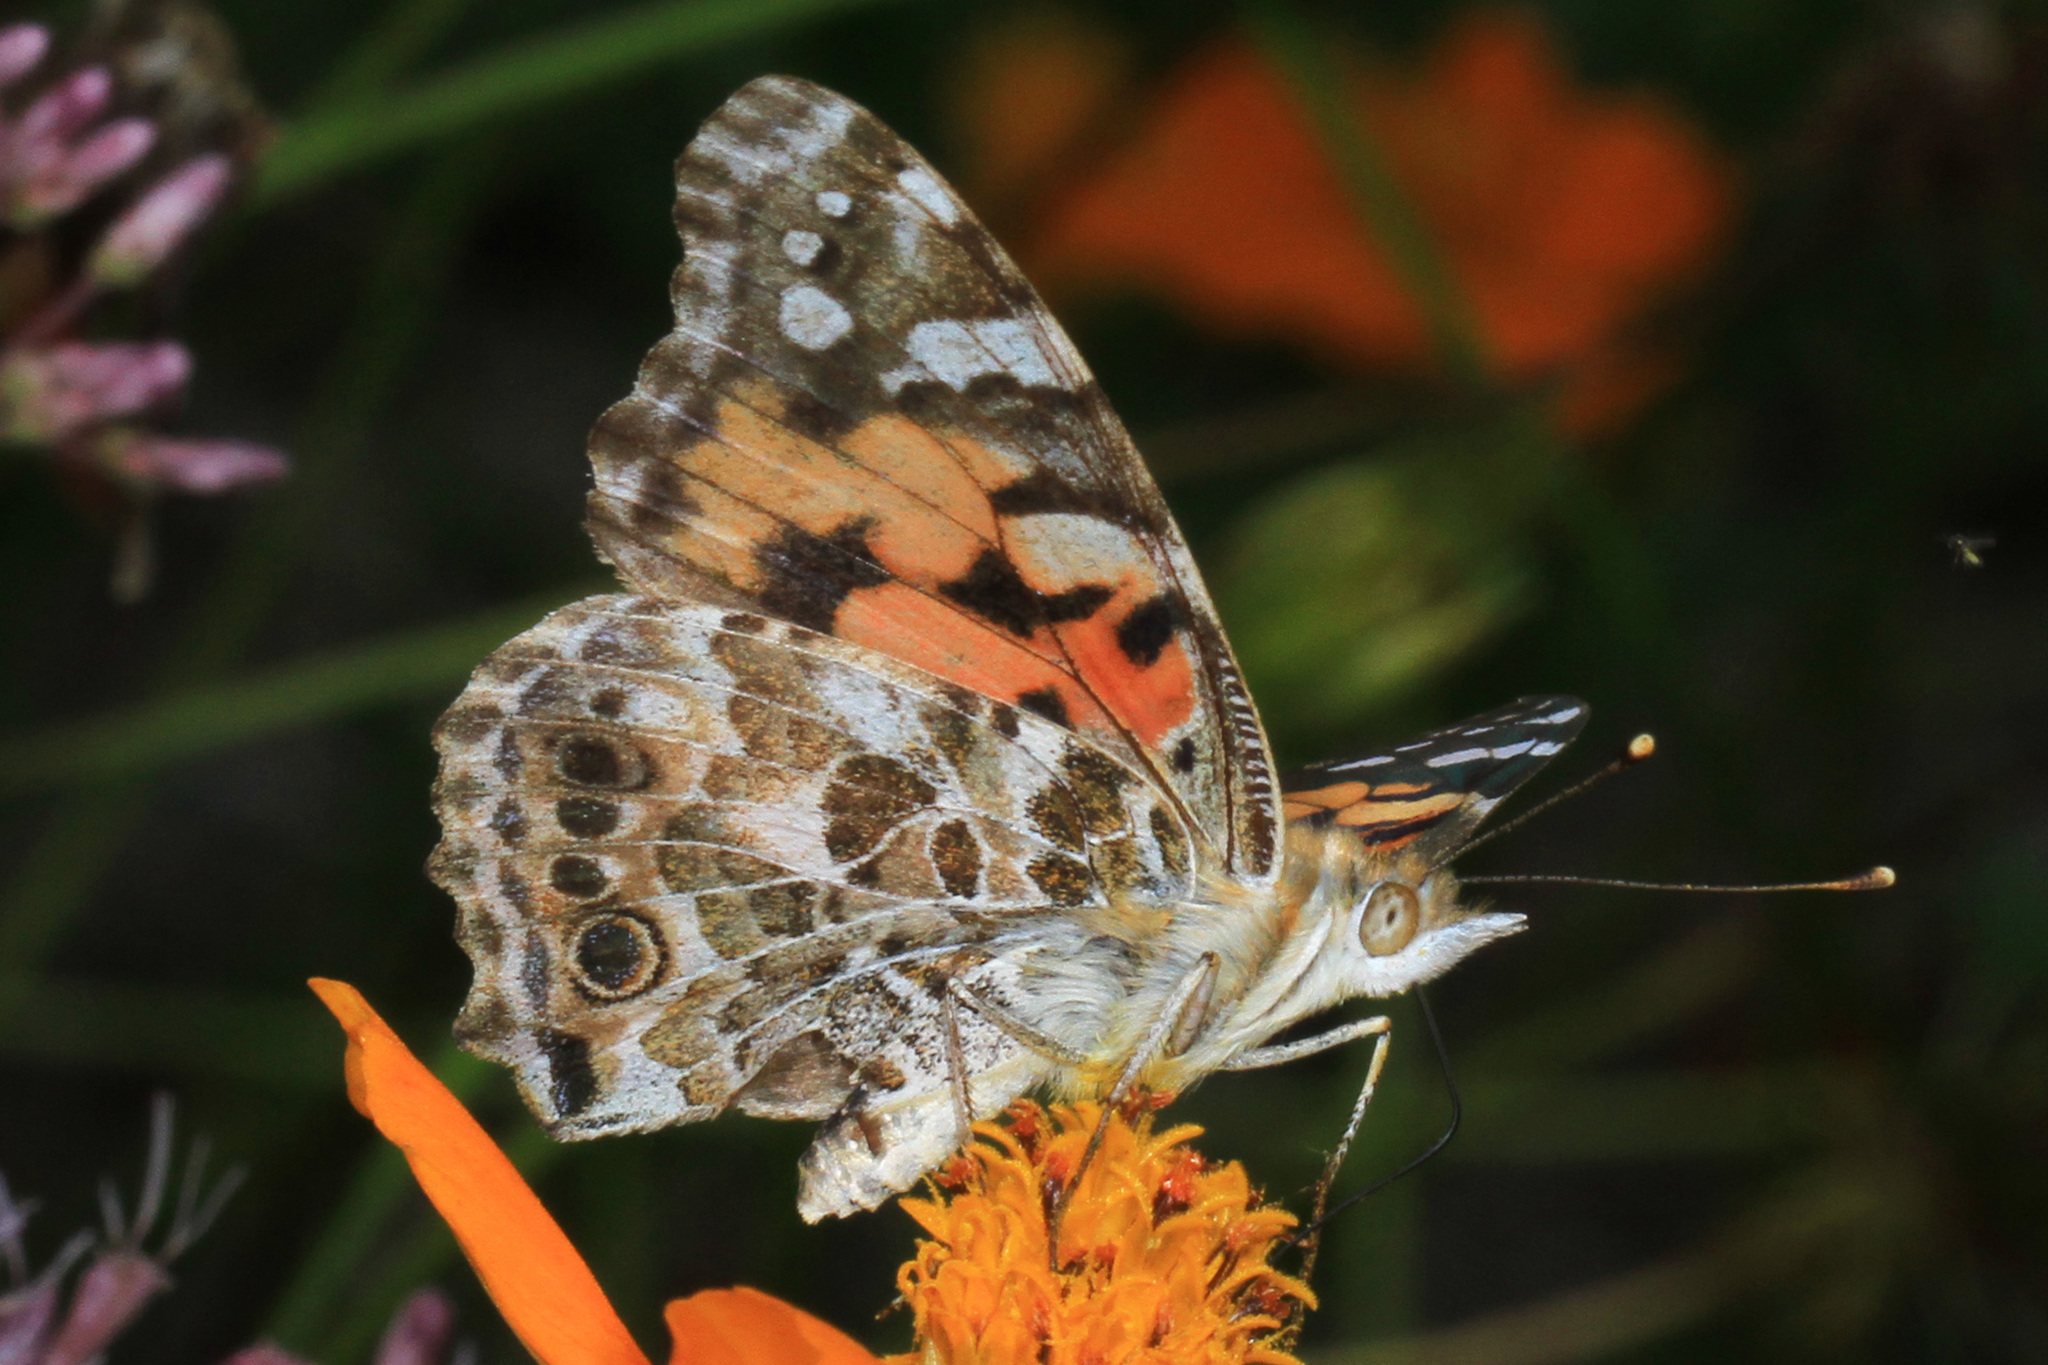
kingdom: Animalia
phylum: Arthropoda
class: Insecta
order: Lepidoptera
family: Nymphalidae
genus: Vanessa
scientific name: Vanessa cardui
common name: Painted lady
